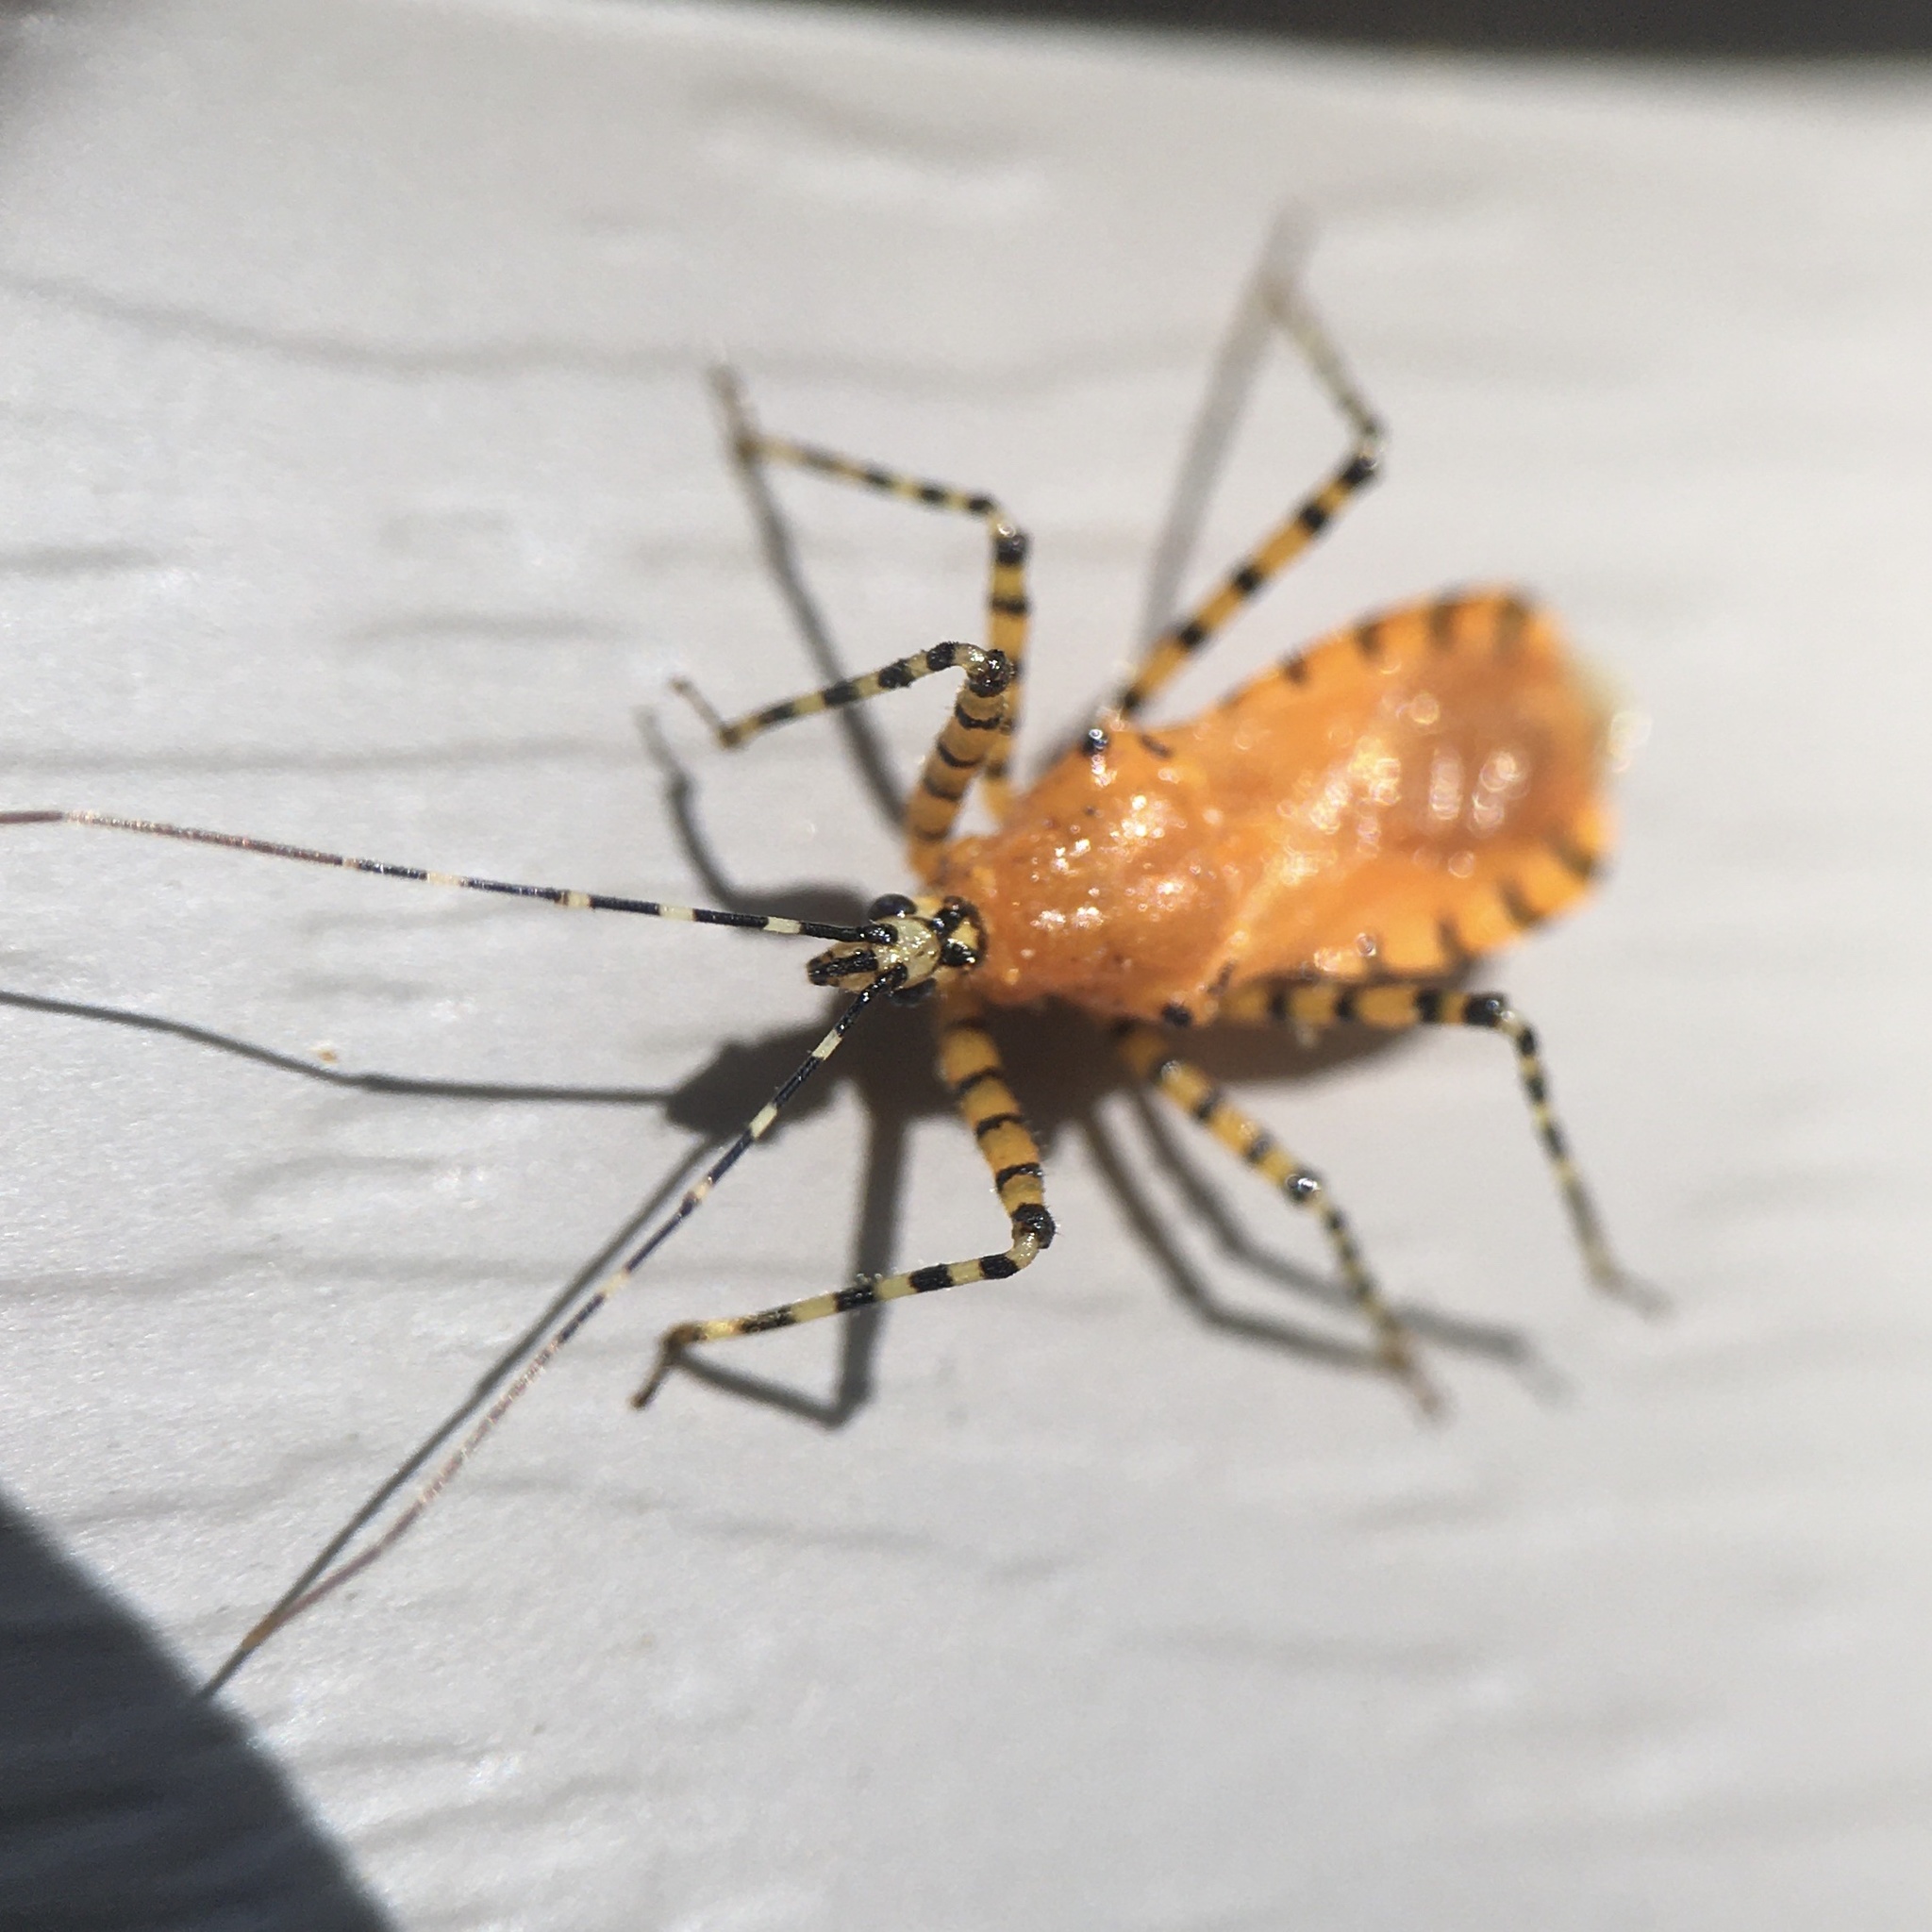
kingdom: Animalia
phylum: Arthropoda
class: Insecta
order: Hemiptera
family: Reduviidae
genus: Pselliopus
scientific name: Pselliopus barberi
